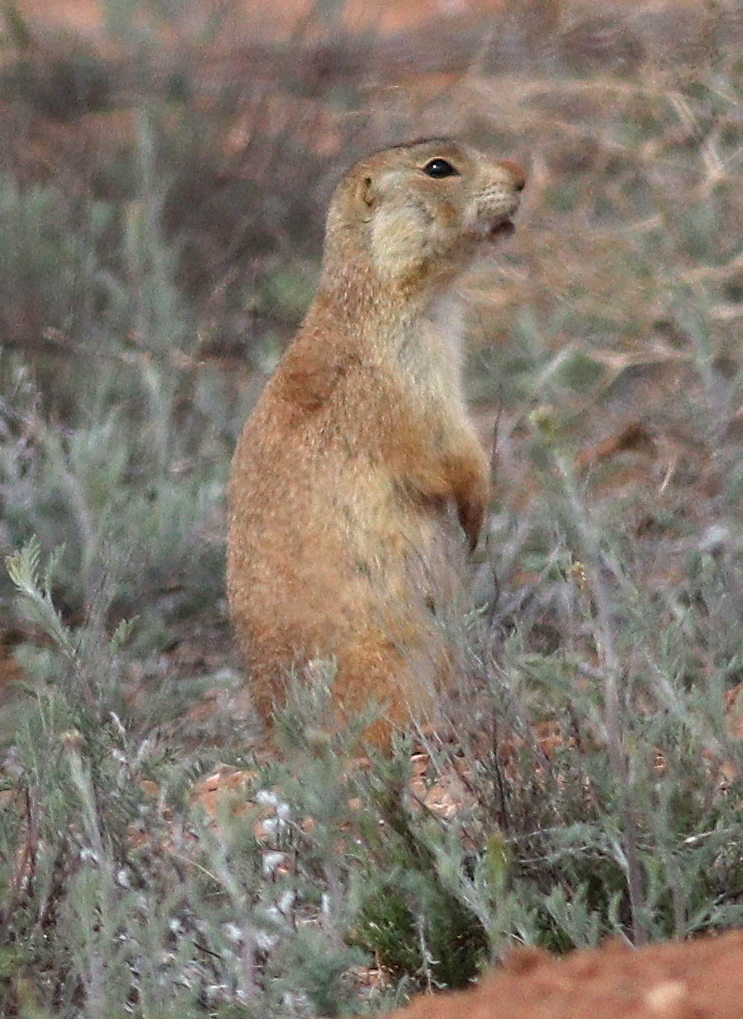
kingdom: Animalia
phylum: Chordata
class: Mammalia
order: Rodentia
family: Sciuridae
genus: Cynomys
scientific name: Cynomys gunnisoni
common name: Gunnison's prairie dog
